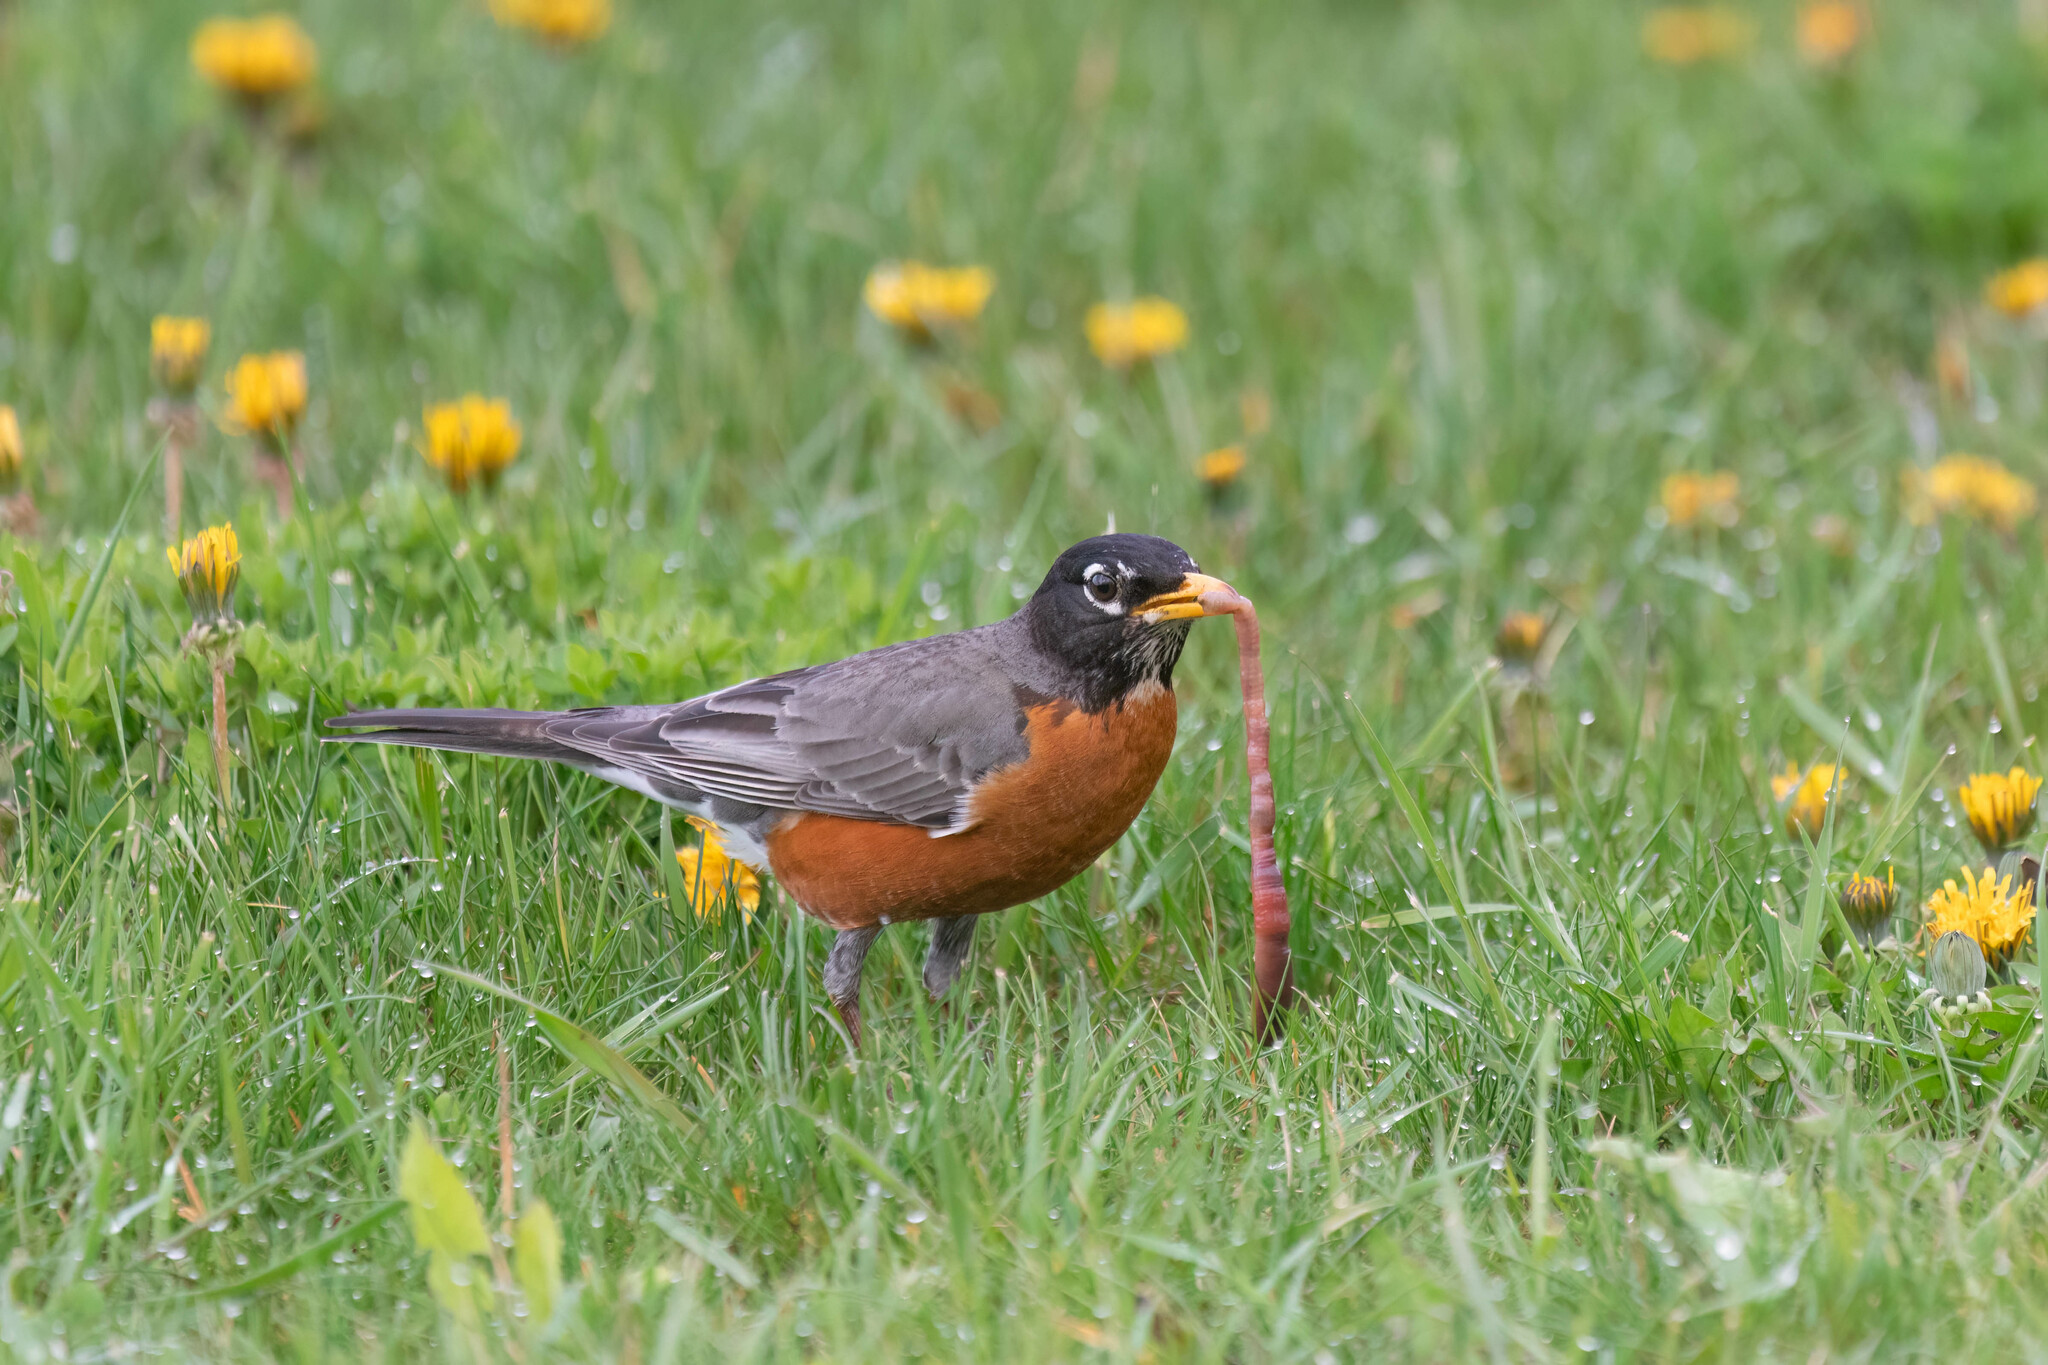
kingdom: Animalia
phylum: Chordata
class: Aves
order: Passeriformes
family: Turdidae
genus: Turdus
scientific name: Turdus migratorius
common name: American robin
